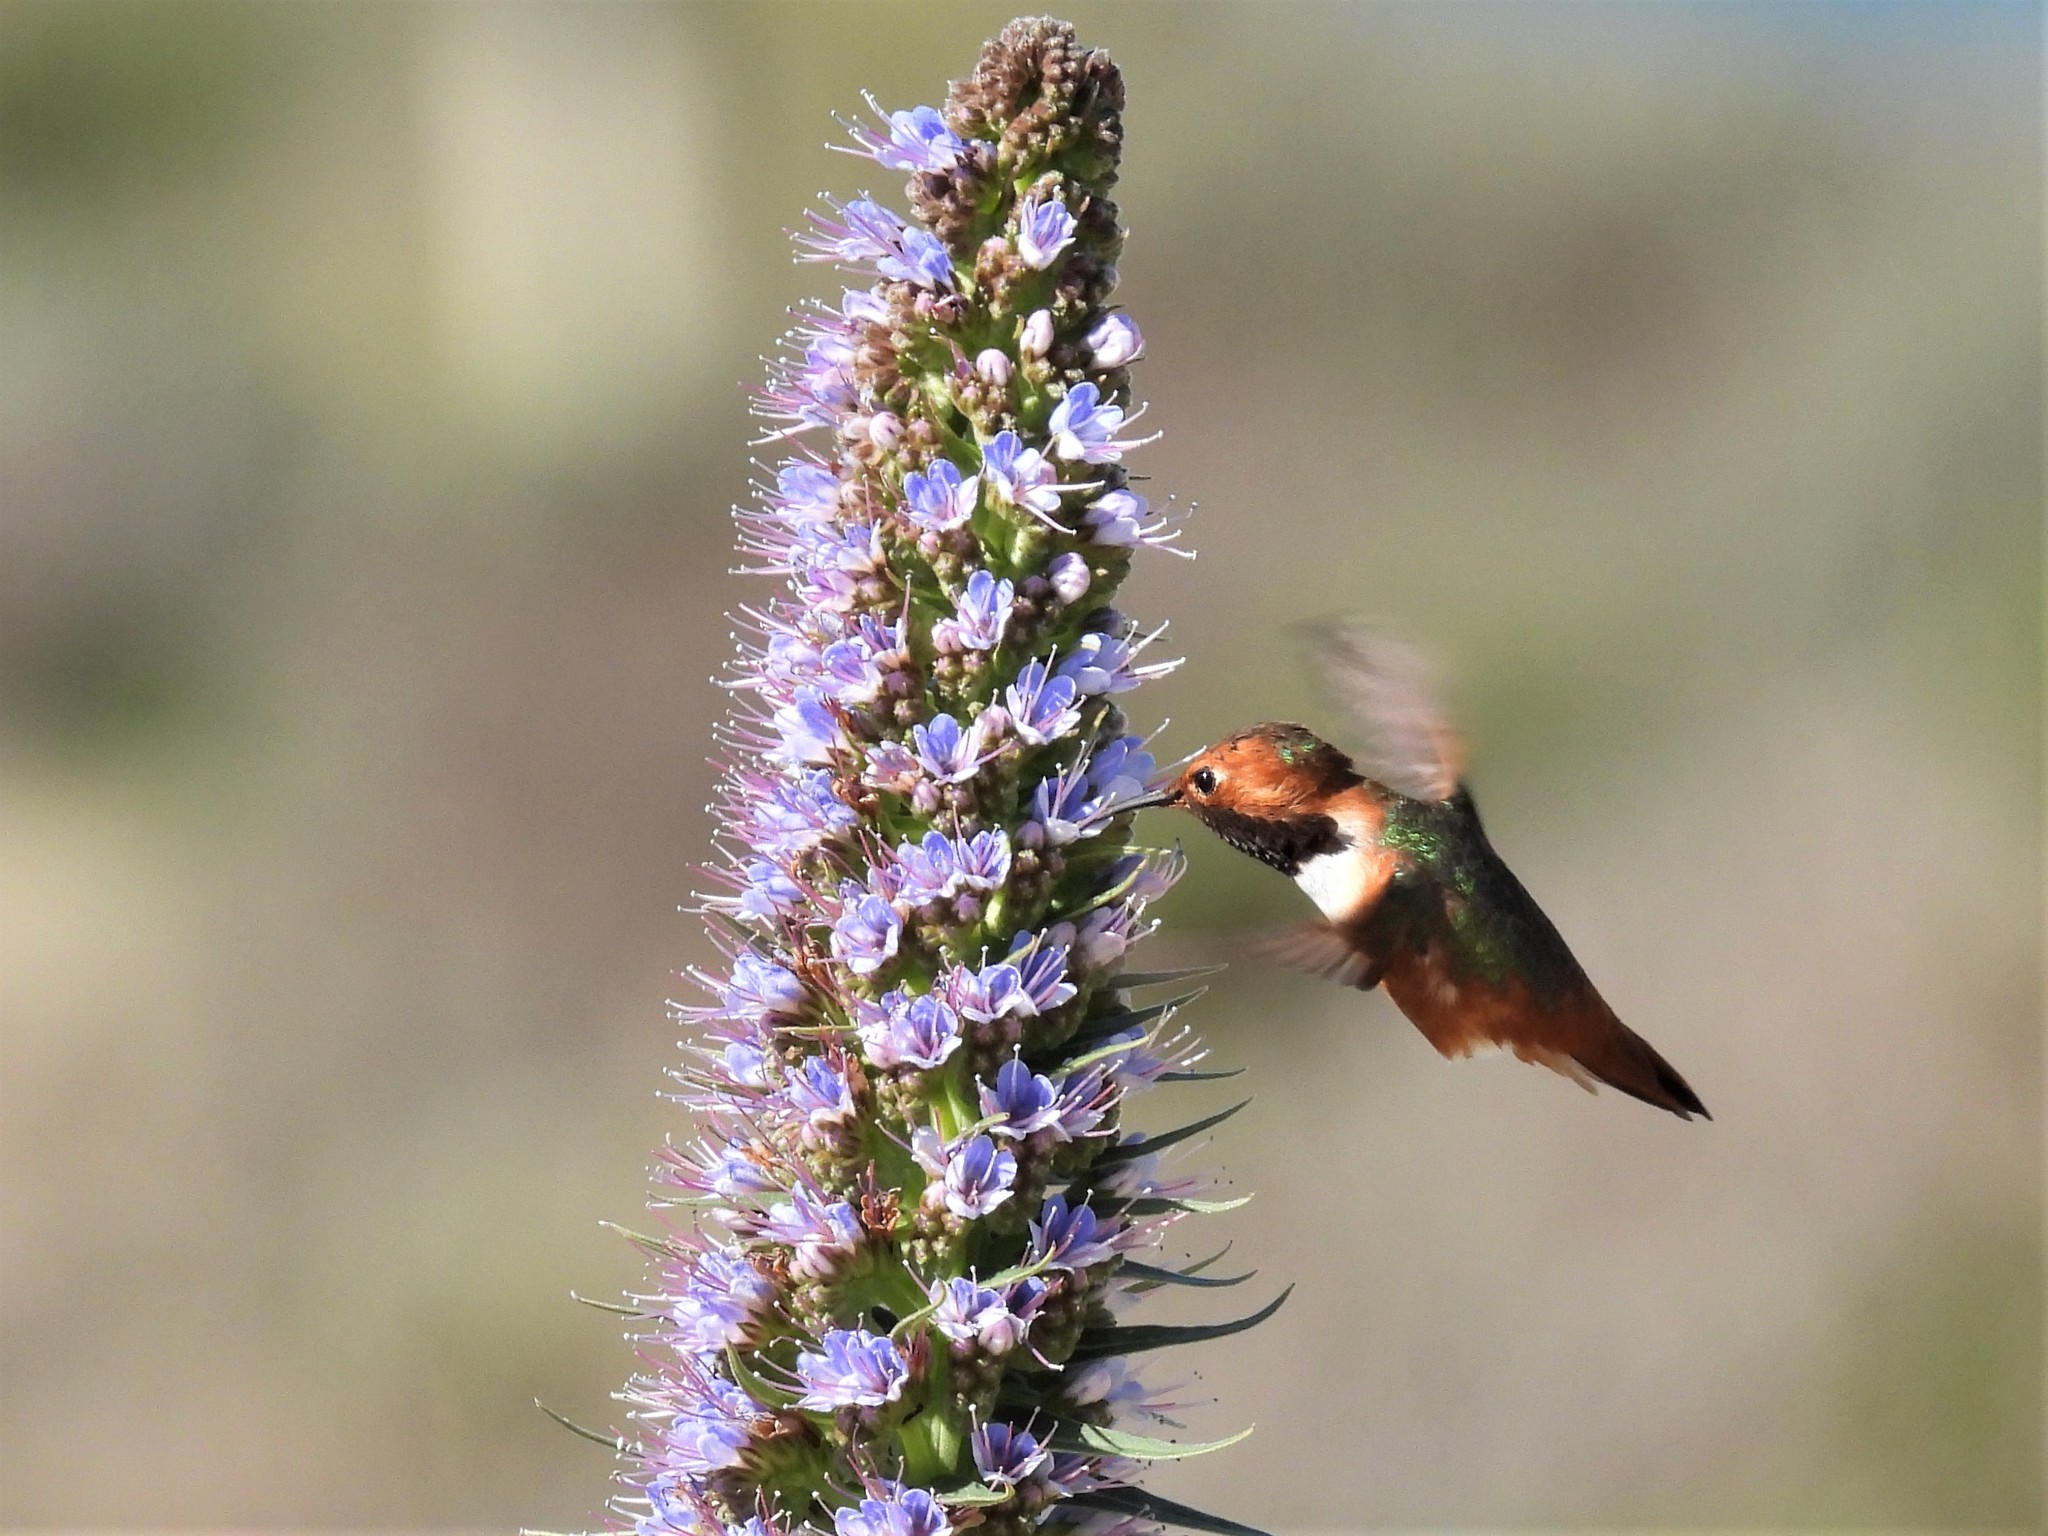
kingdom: Animalia
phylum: Chordata
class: Aves
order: Apodiformes
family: Trochilidae
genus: Selasphorus
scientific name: Selasphorus sasin
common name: Allen's hummingbird
